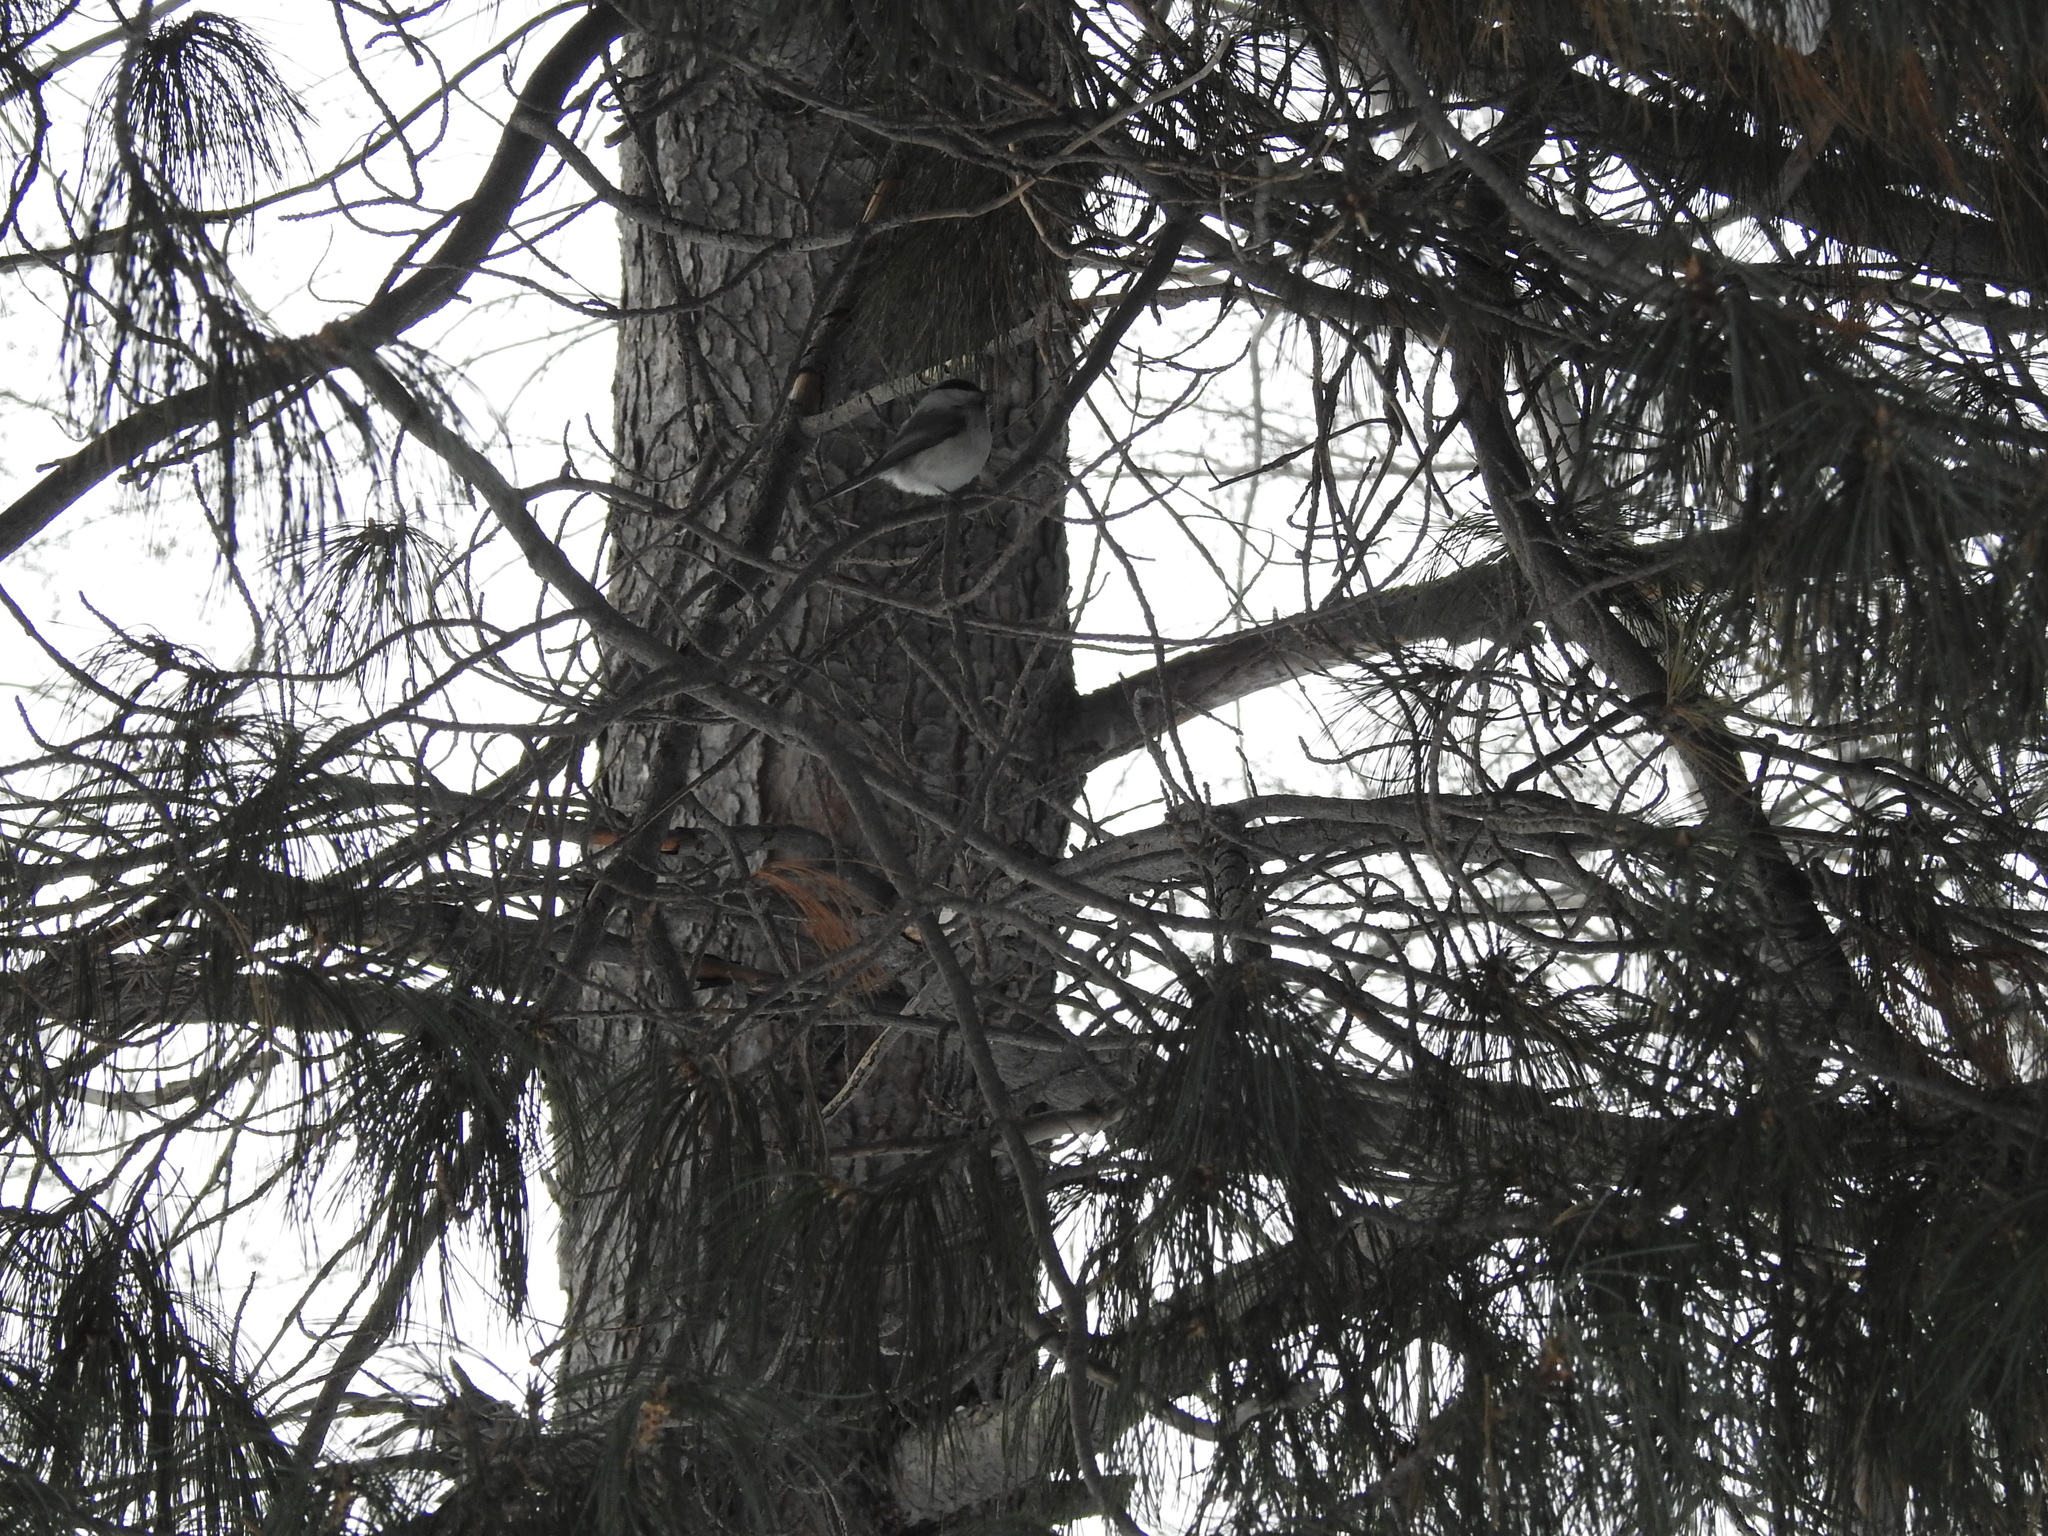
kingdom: Animalia
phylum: Chordata
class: Aves
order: Passeriformes
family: Paridae
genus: Poecile
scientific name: Poecile montanus
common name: Willow tit
